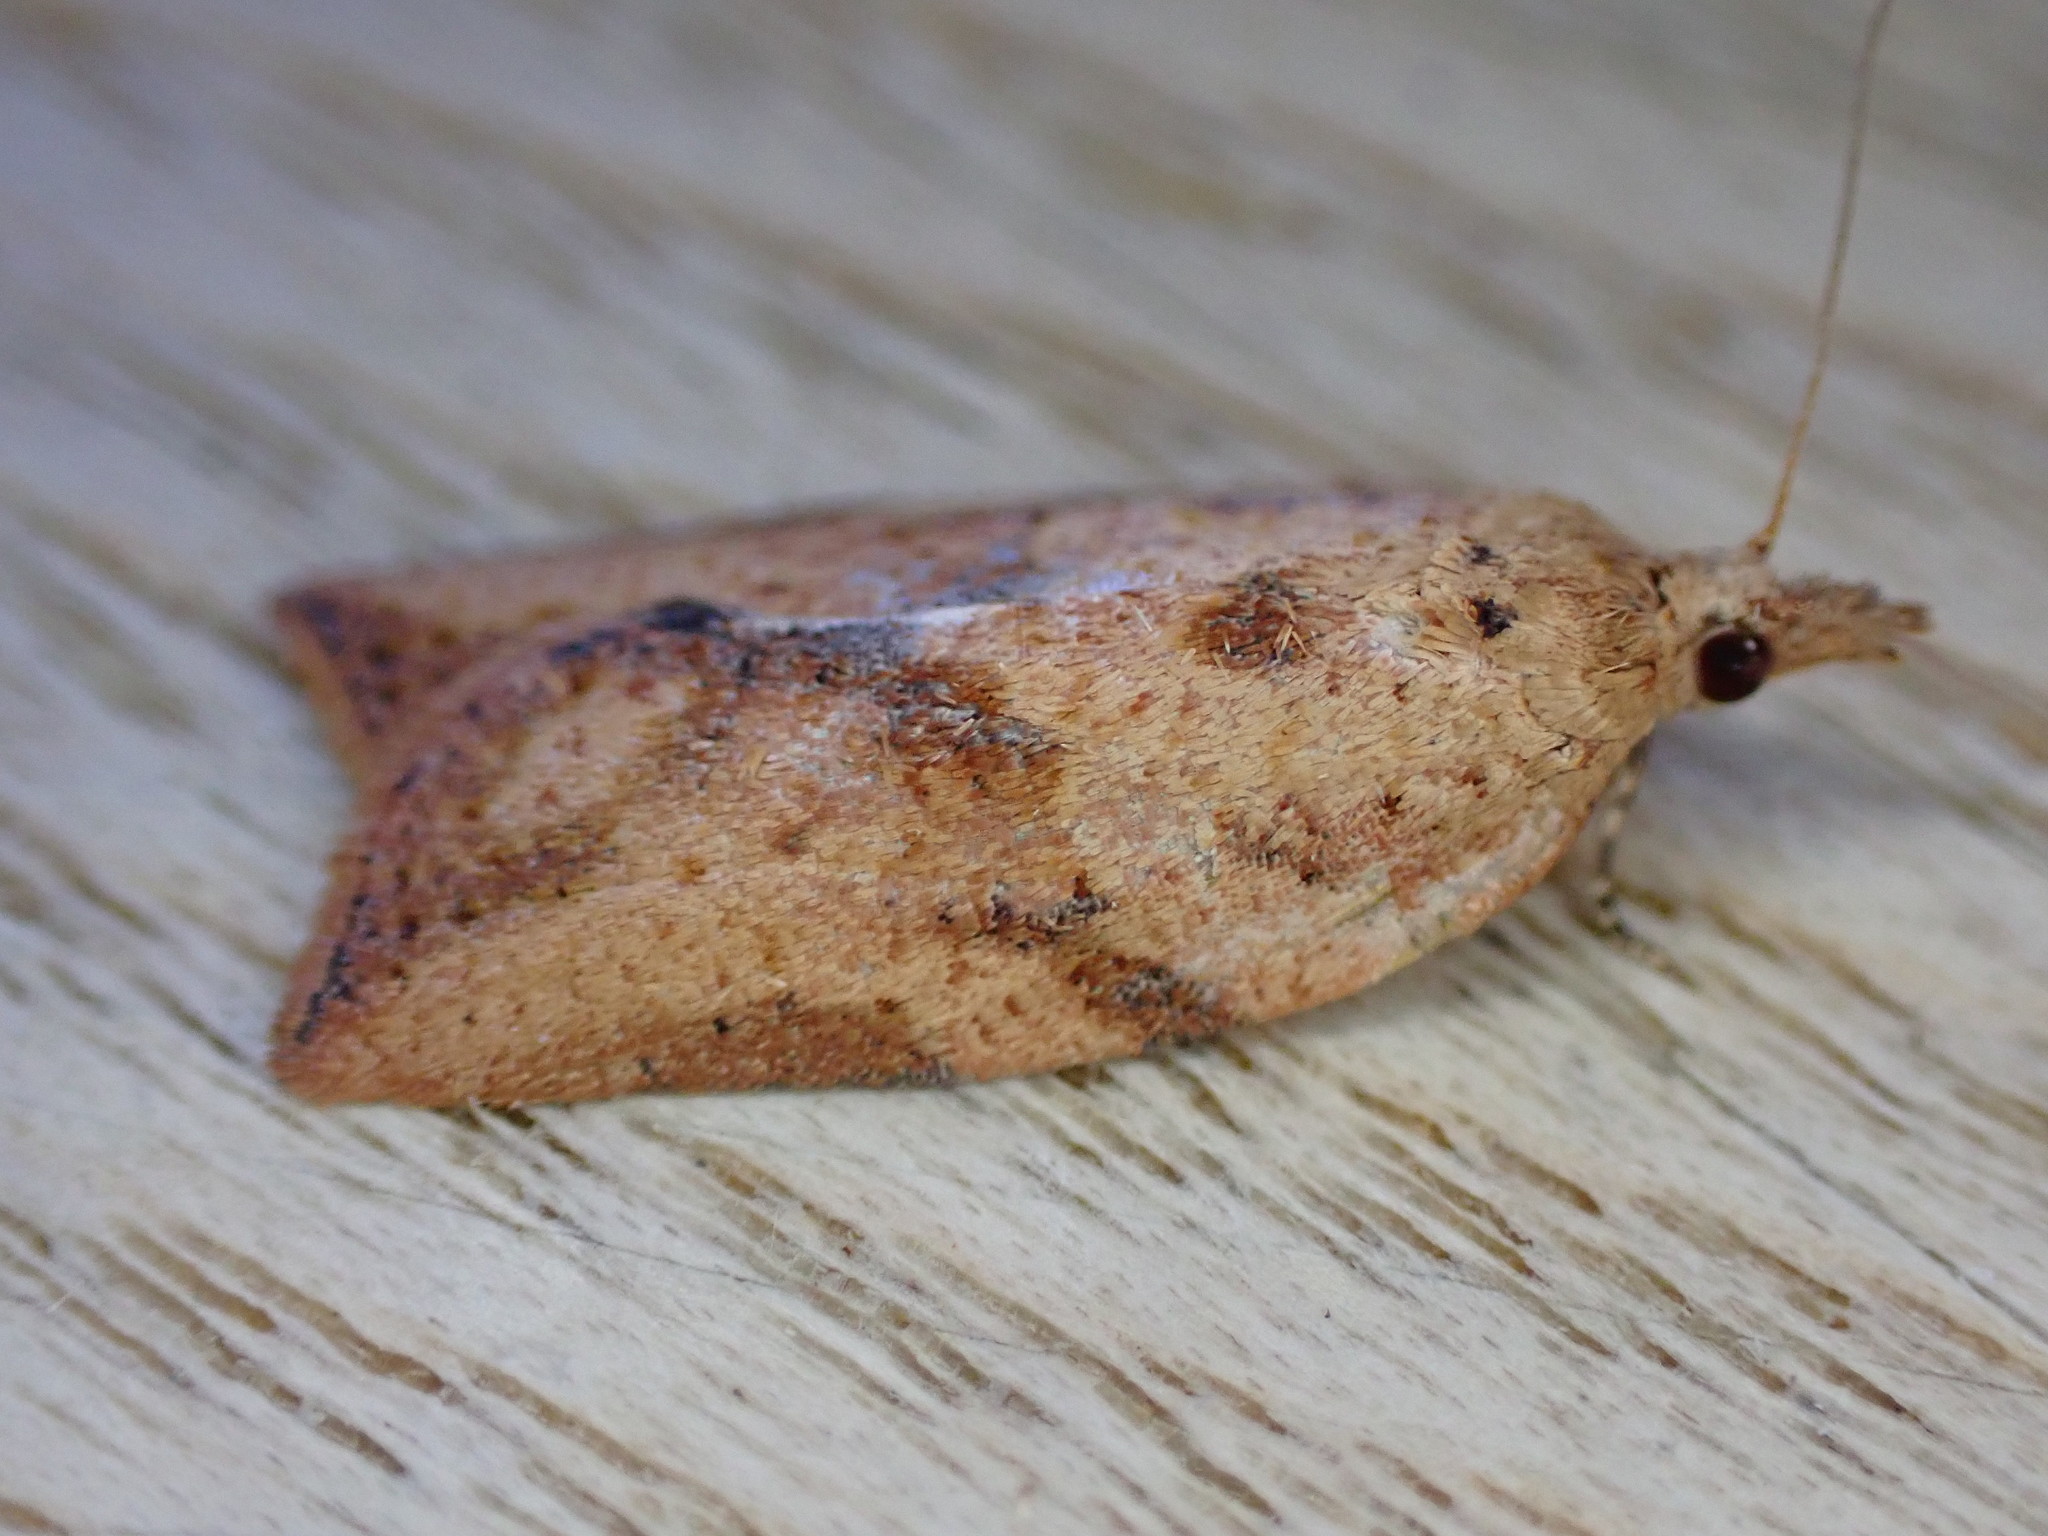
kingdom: Animalia
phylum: Arthropoda
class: Insecta
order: Lepidoptera
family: Tortricidae
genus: Epiphyas
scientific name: Epiphyas postvittana
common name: Light brown apple moth
